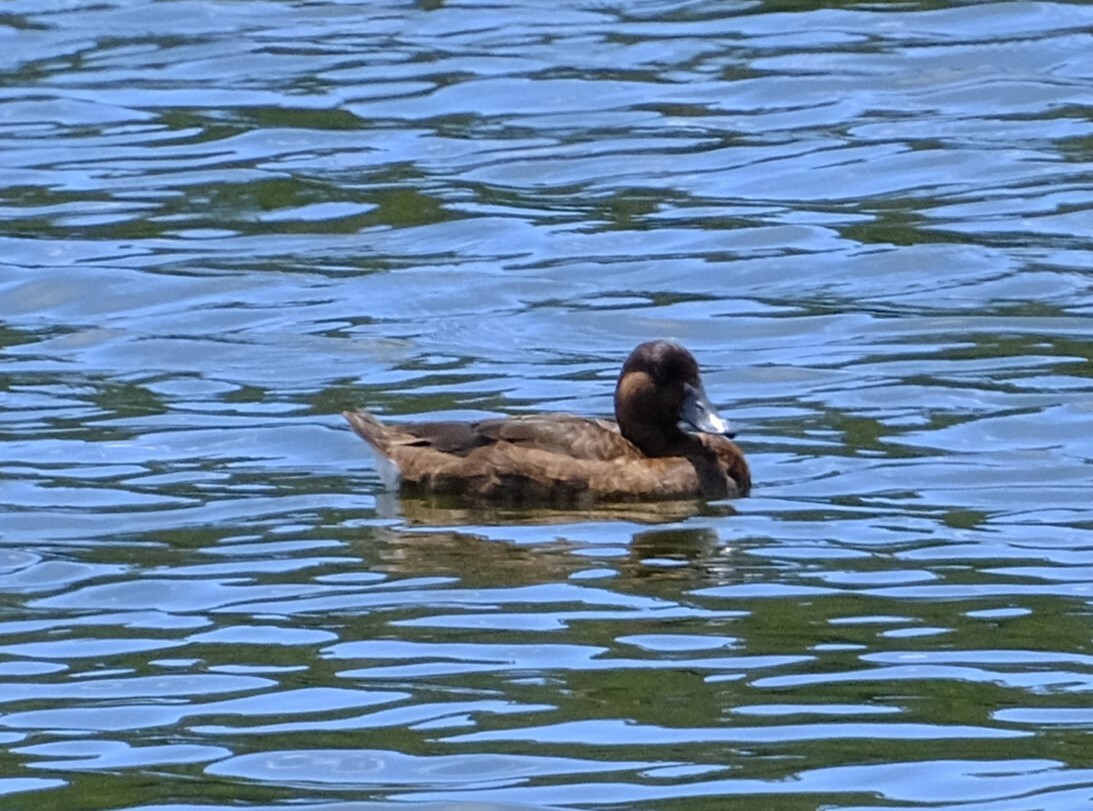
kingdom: Animalia
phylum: Chordata
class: Aves
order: Anseriformes
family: Anatidae
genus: Aythya
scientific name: Aythya australis
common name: Hardhead
